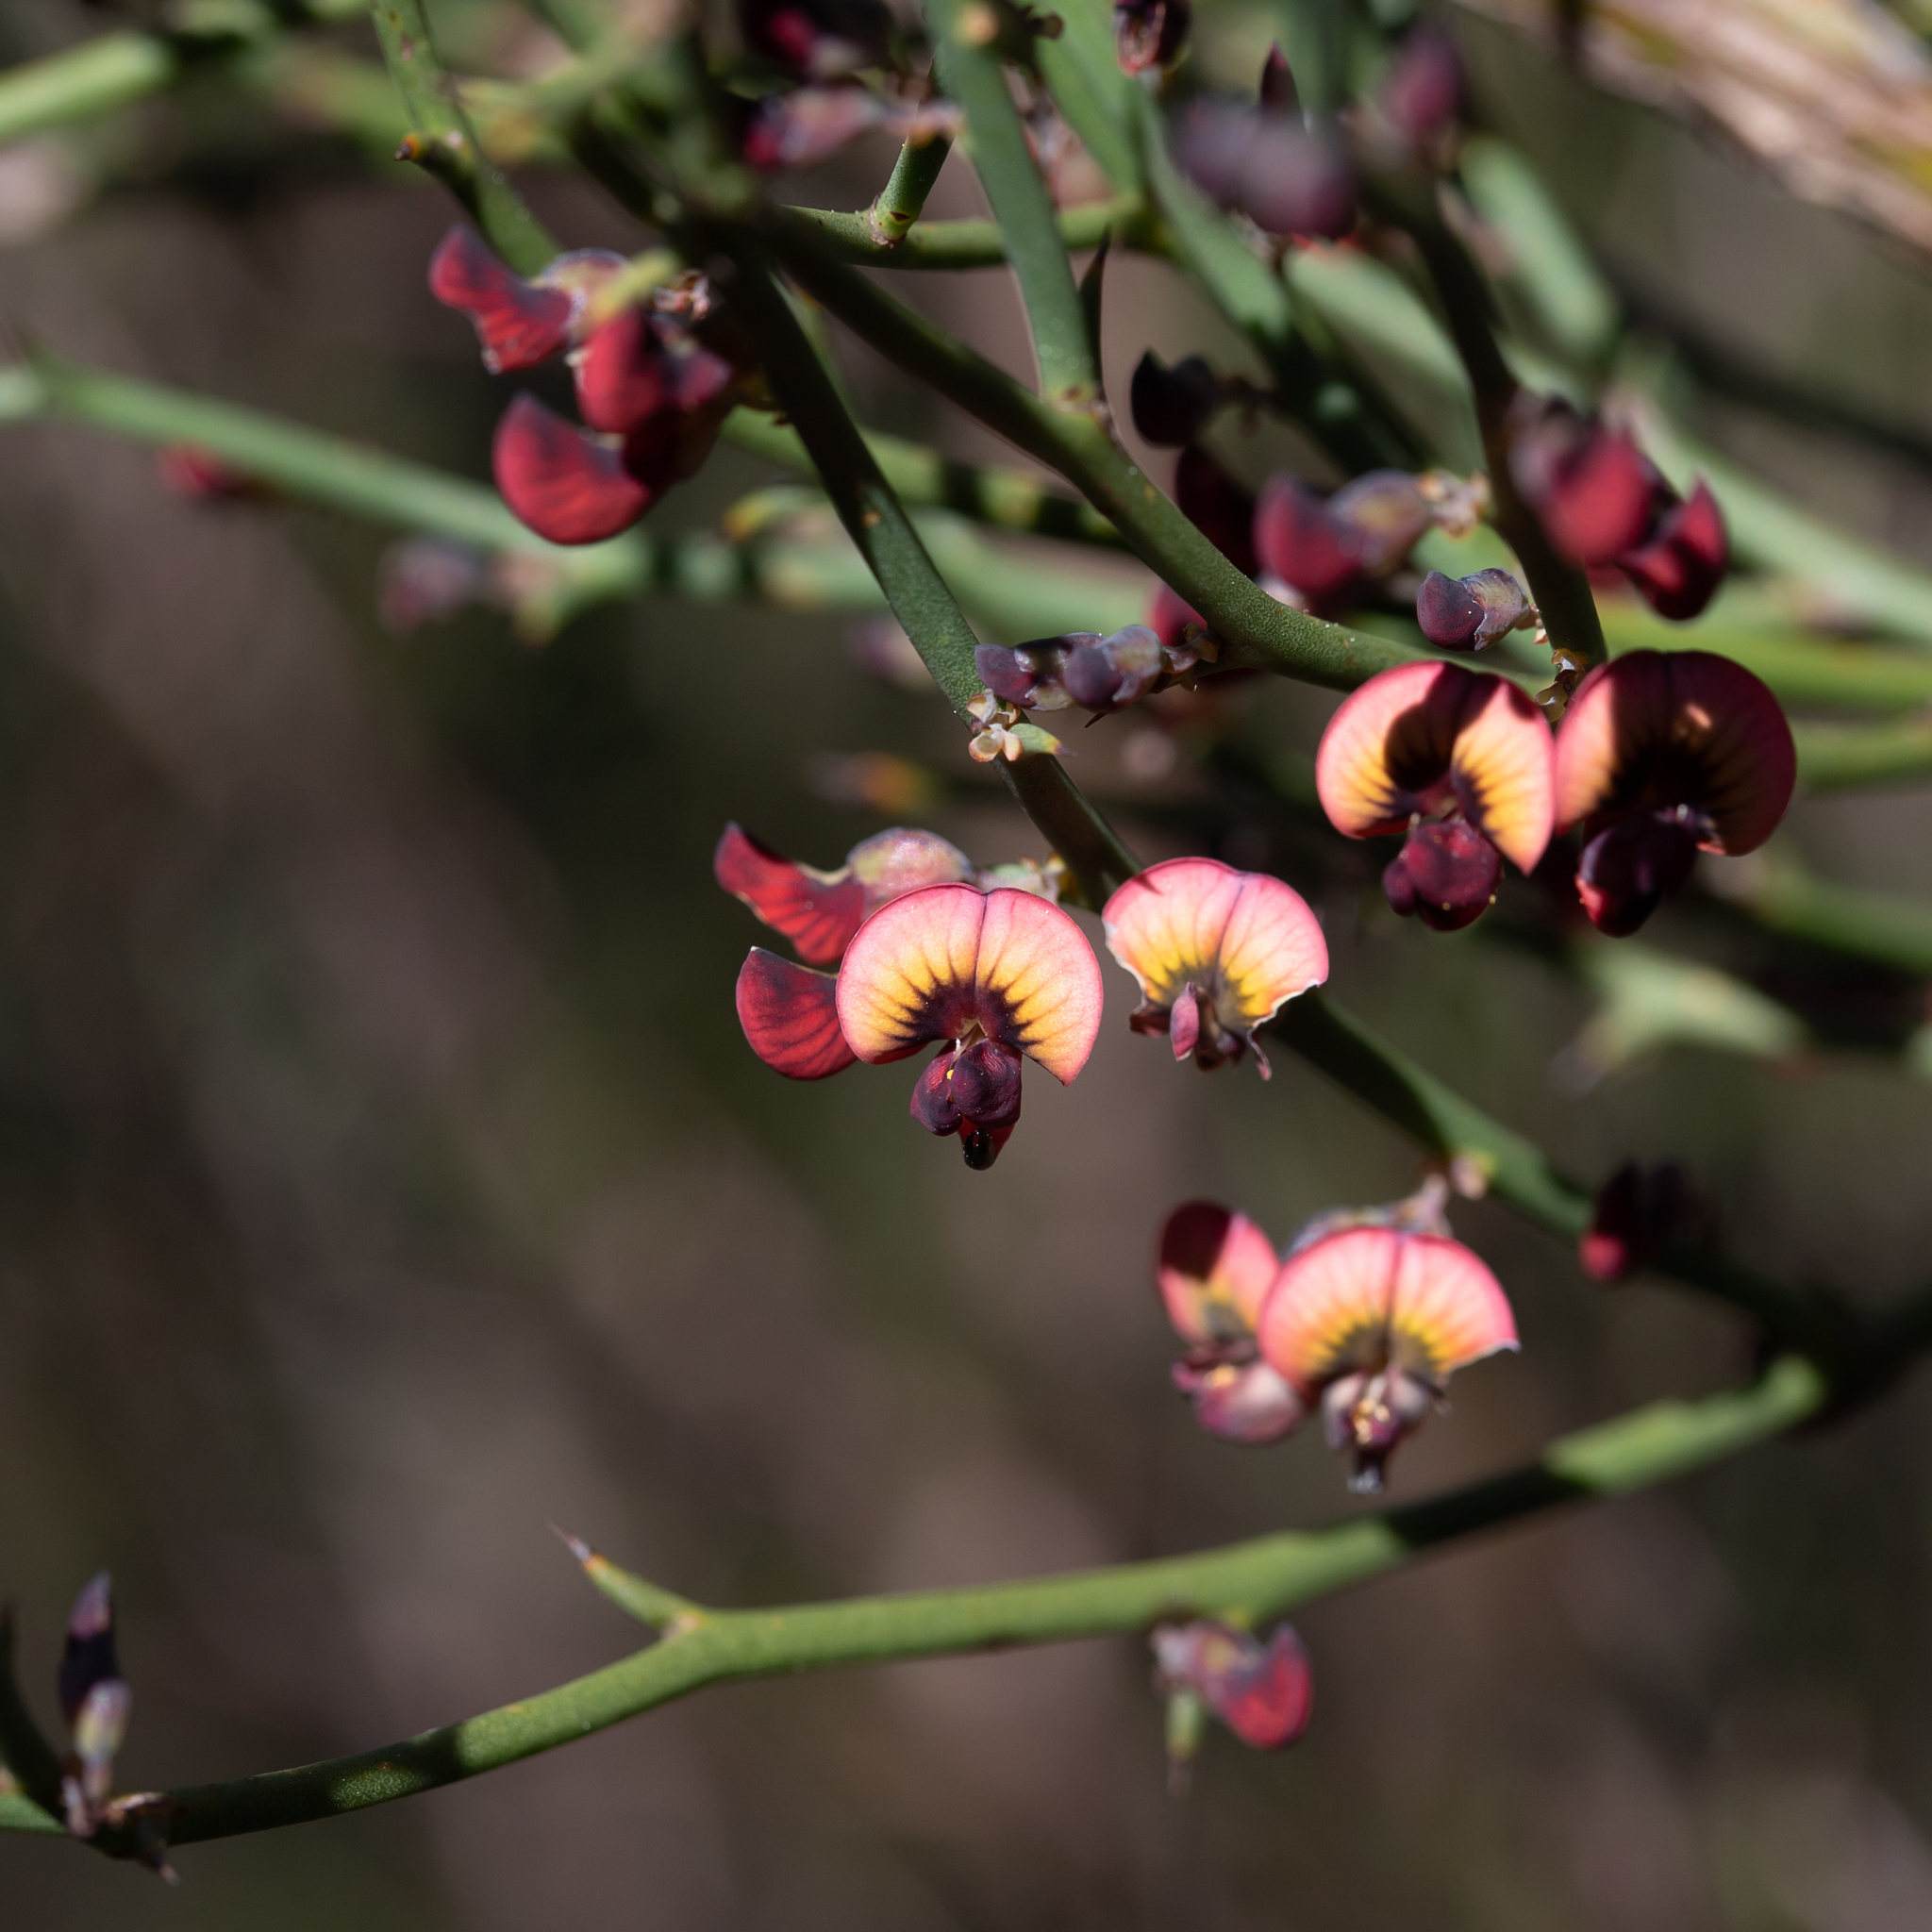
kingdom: Plantae
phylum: Tracheophyta
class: Magnoliopsida
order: Fabales
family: Fabaceae
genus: Daviesia
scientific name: Daviesia brevifolia
